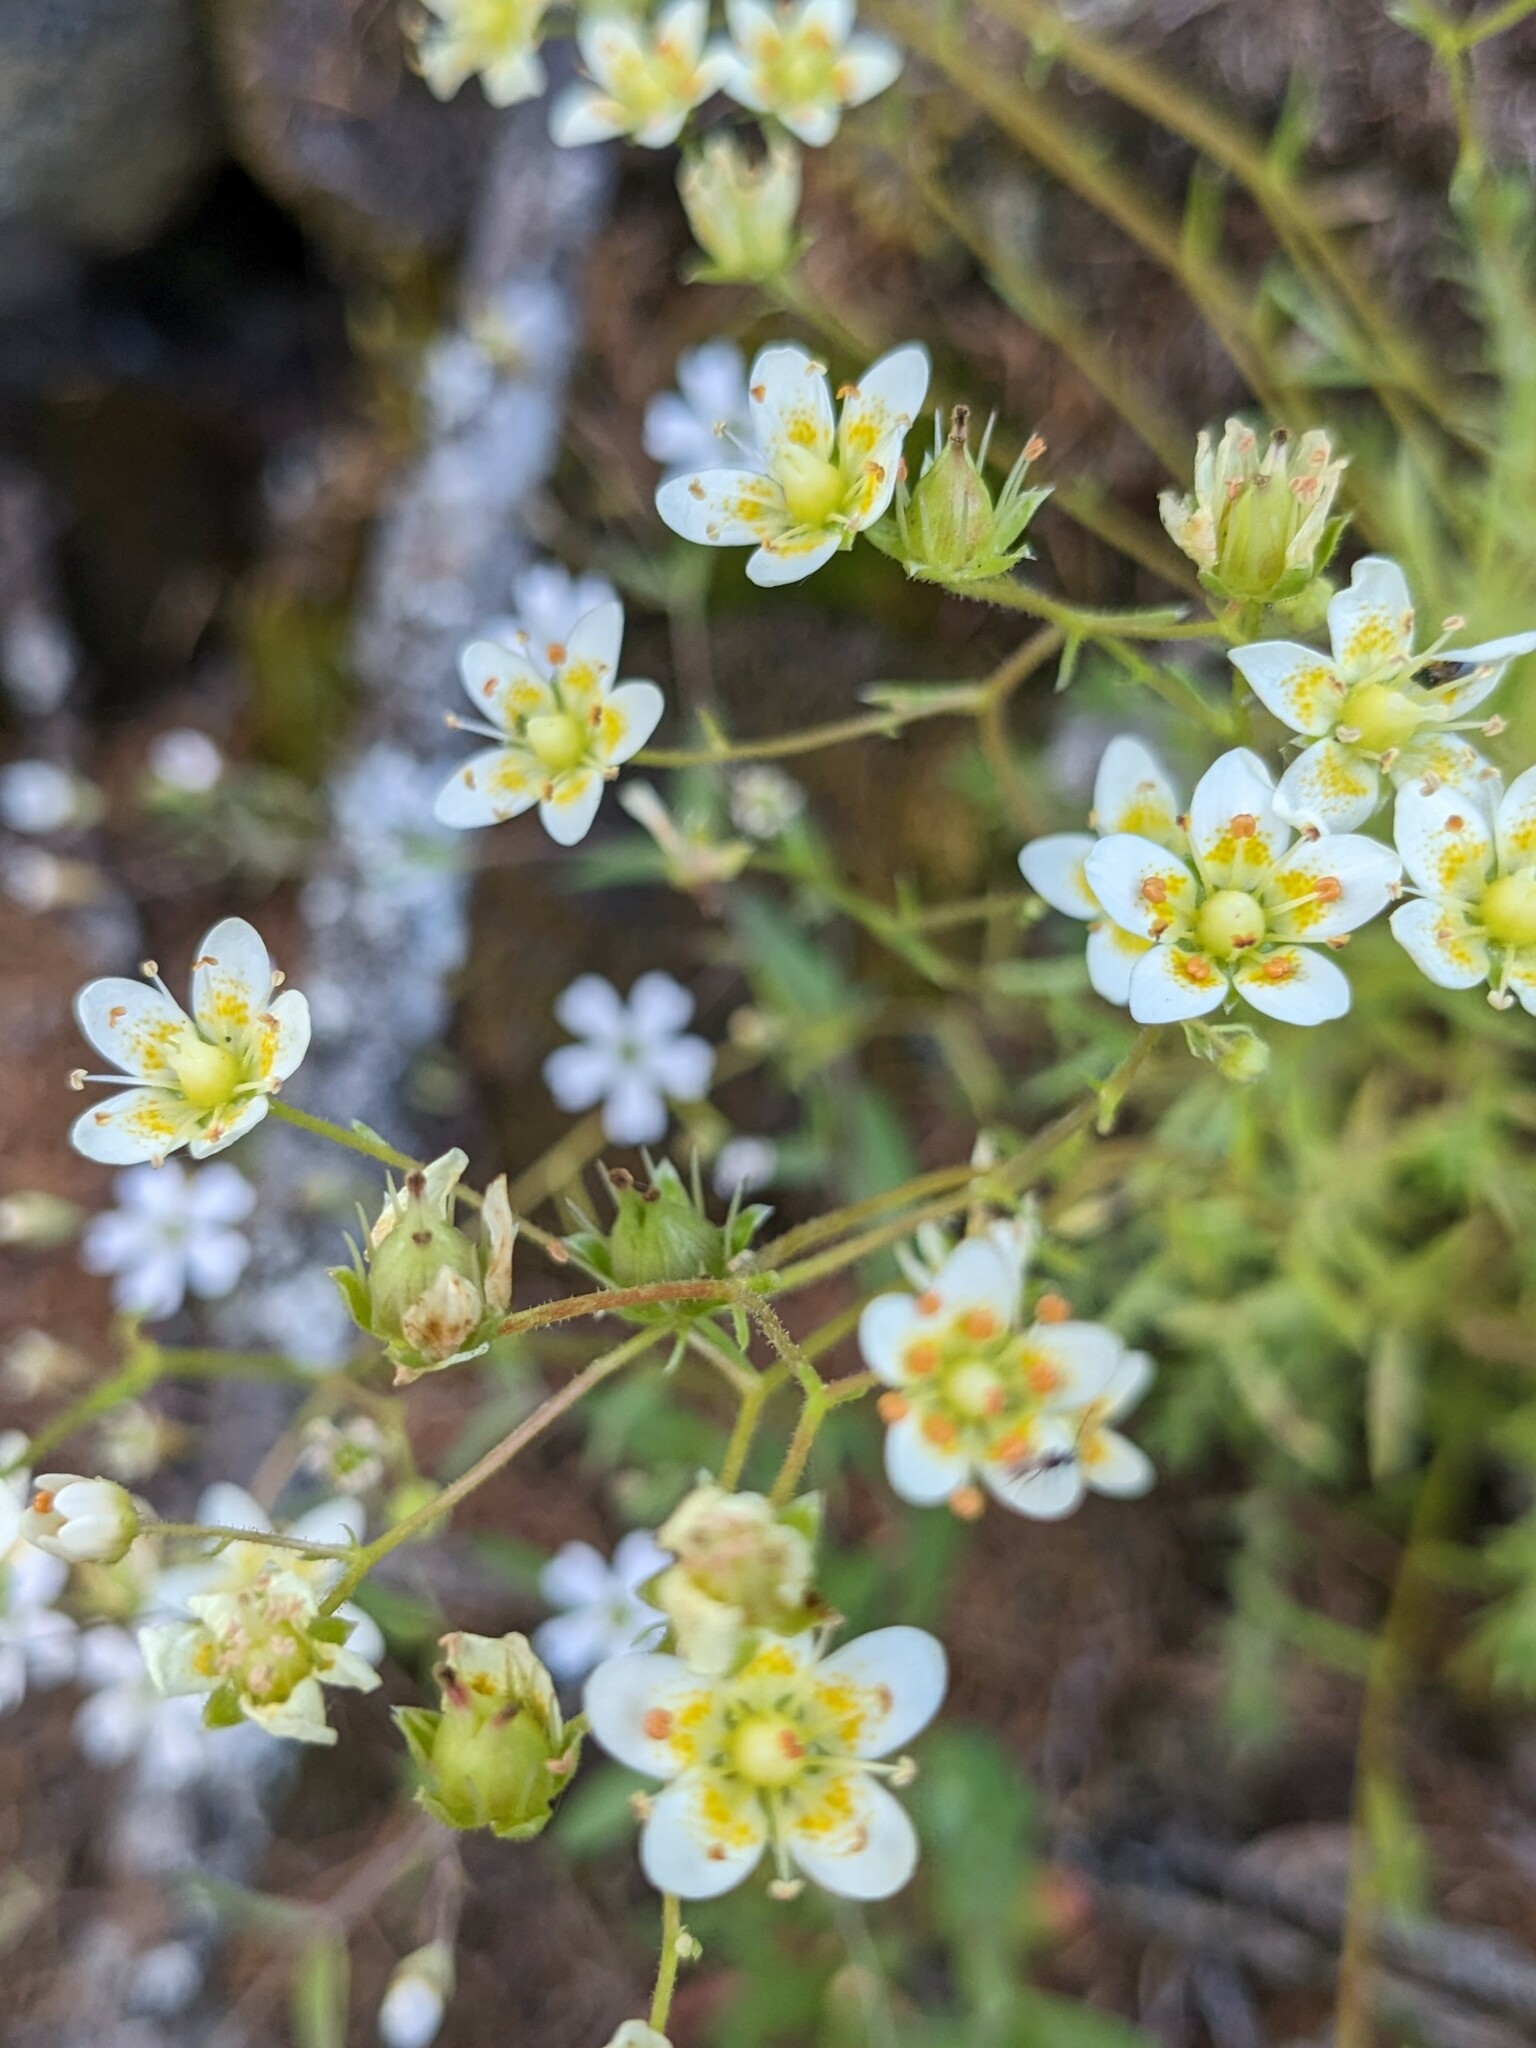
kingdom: Plantae
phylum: Tracheophyta
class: Magnoliopsida
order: Saxifragales
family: Saxifragaceae
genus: Saxifraga
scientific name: Saxifraga aspera
